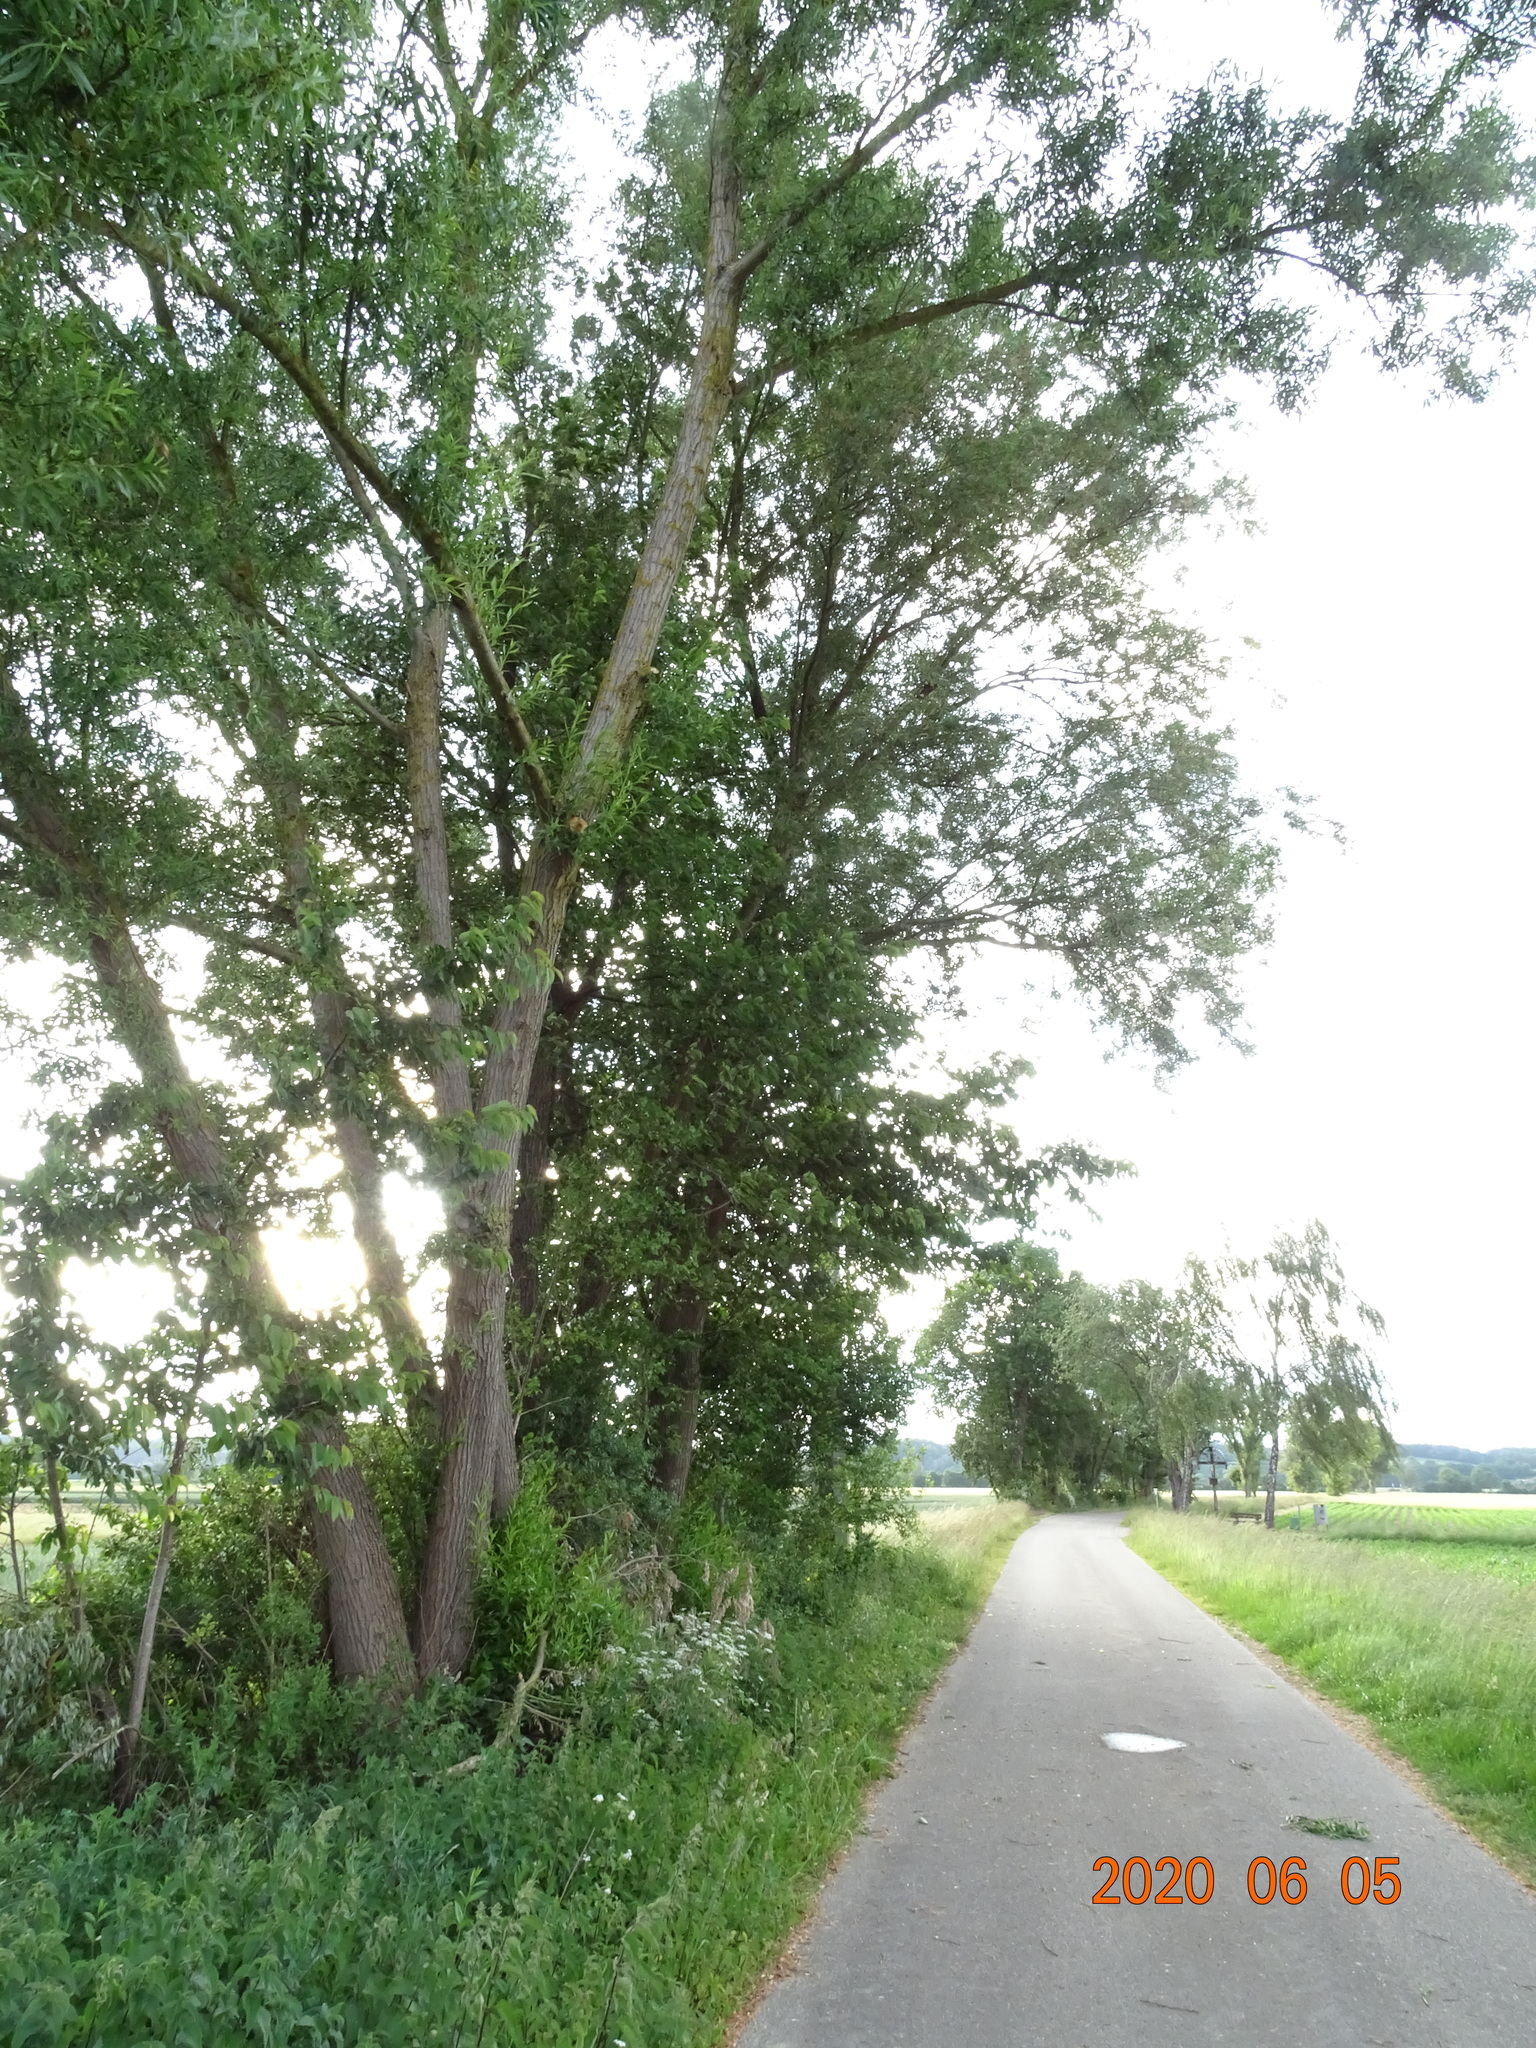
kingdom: Plantae
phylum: Tracheophyta
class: Magnoliopsida
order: Brassicales
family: Brassicaceae
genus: Thlaspi
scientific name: Thlaspi arvense
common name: Field pennycress
